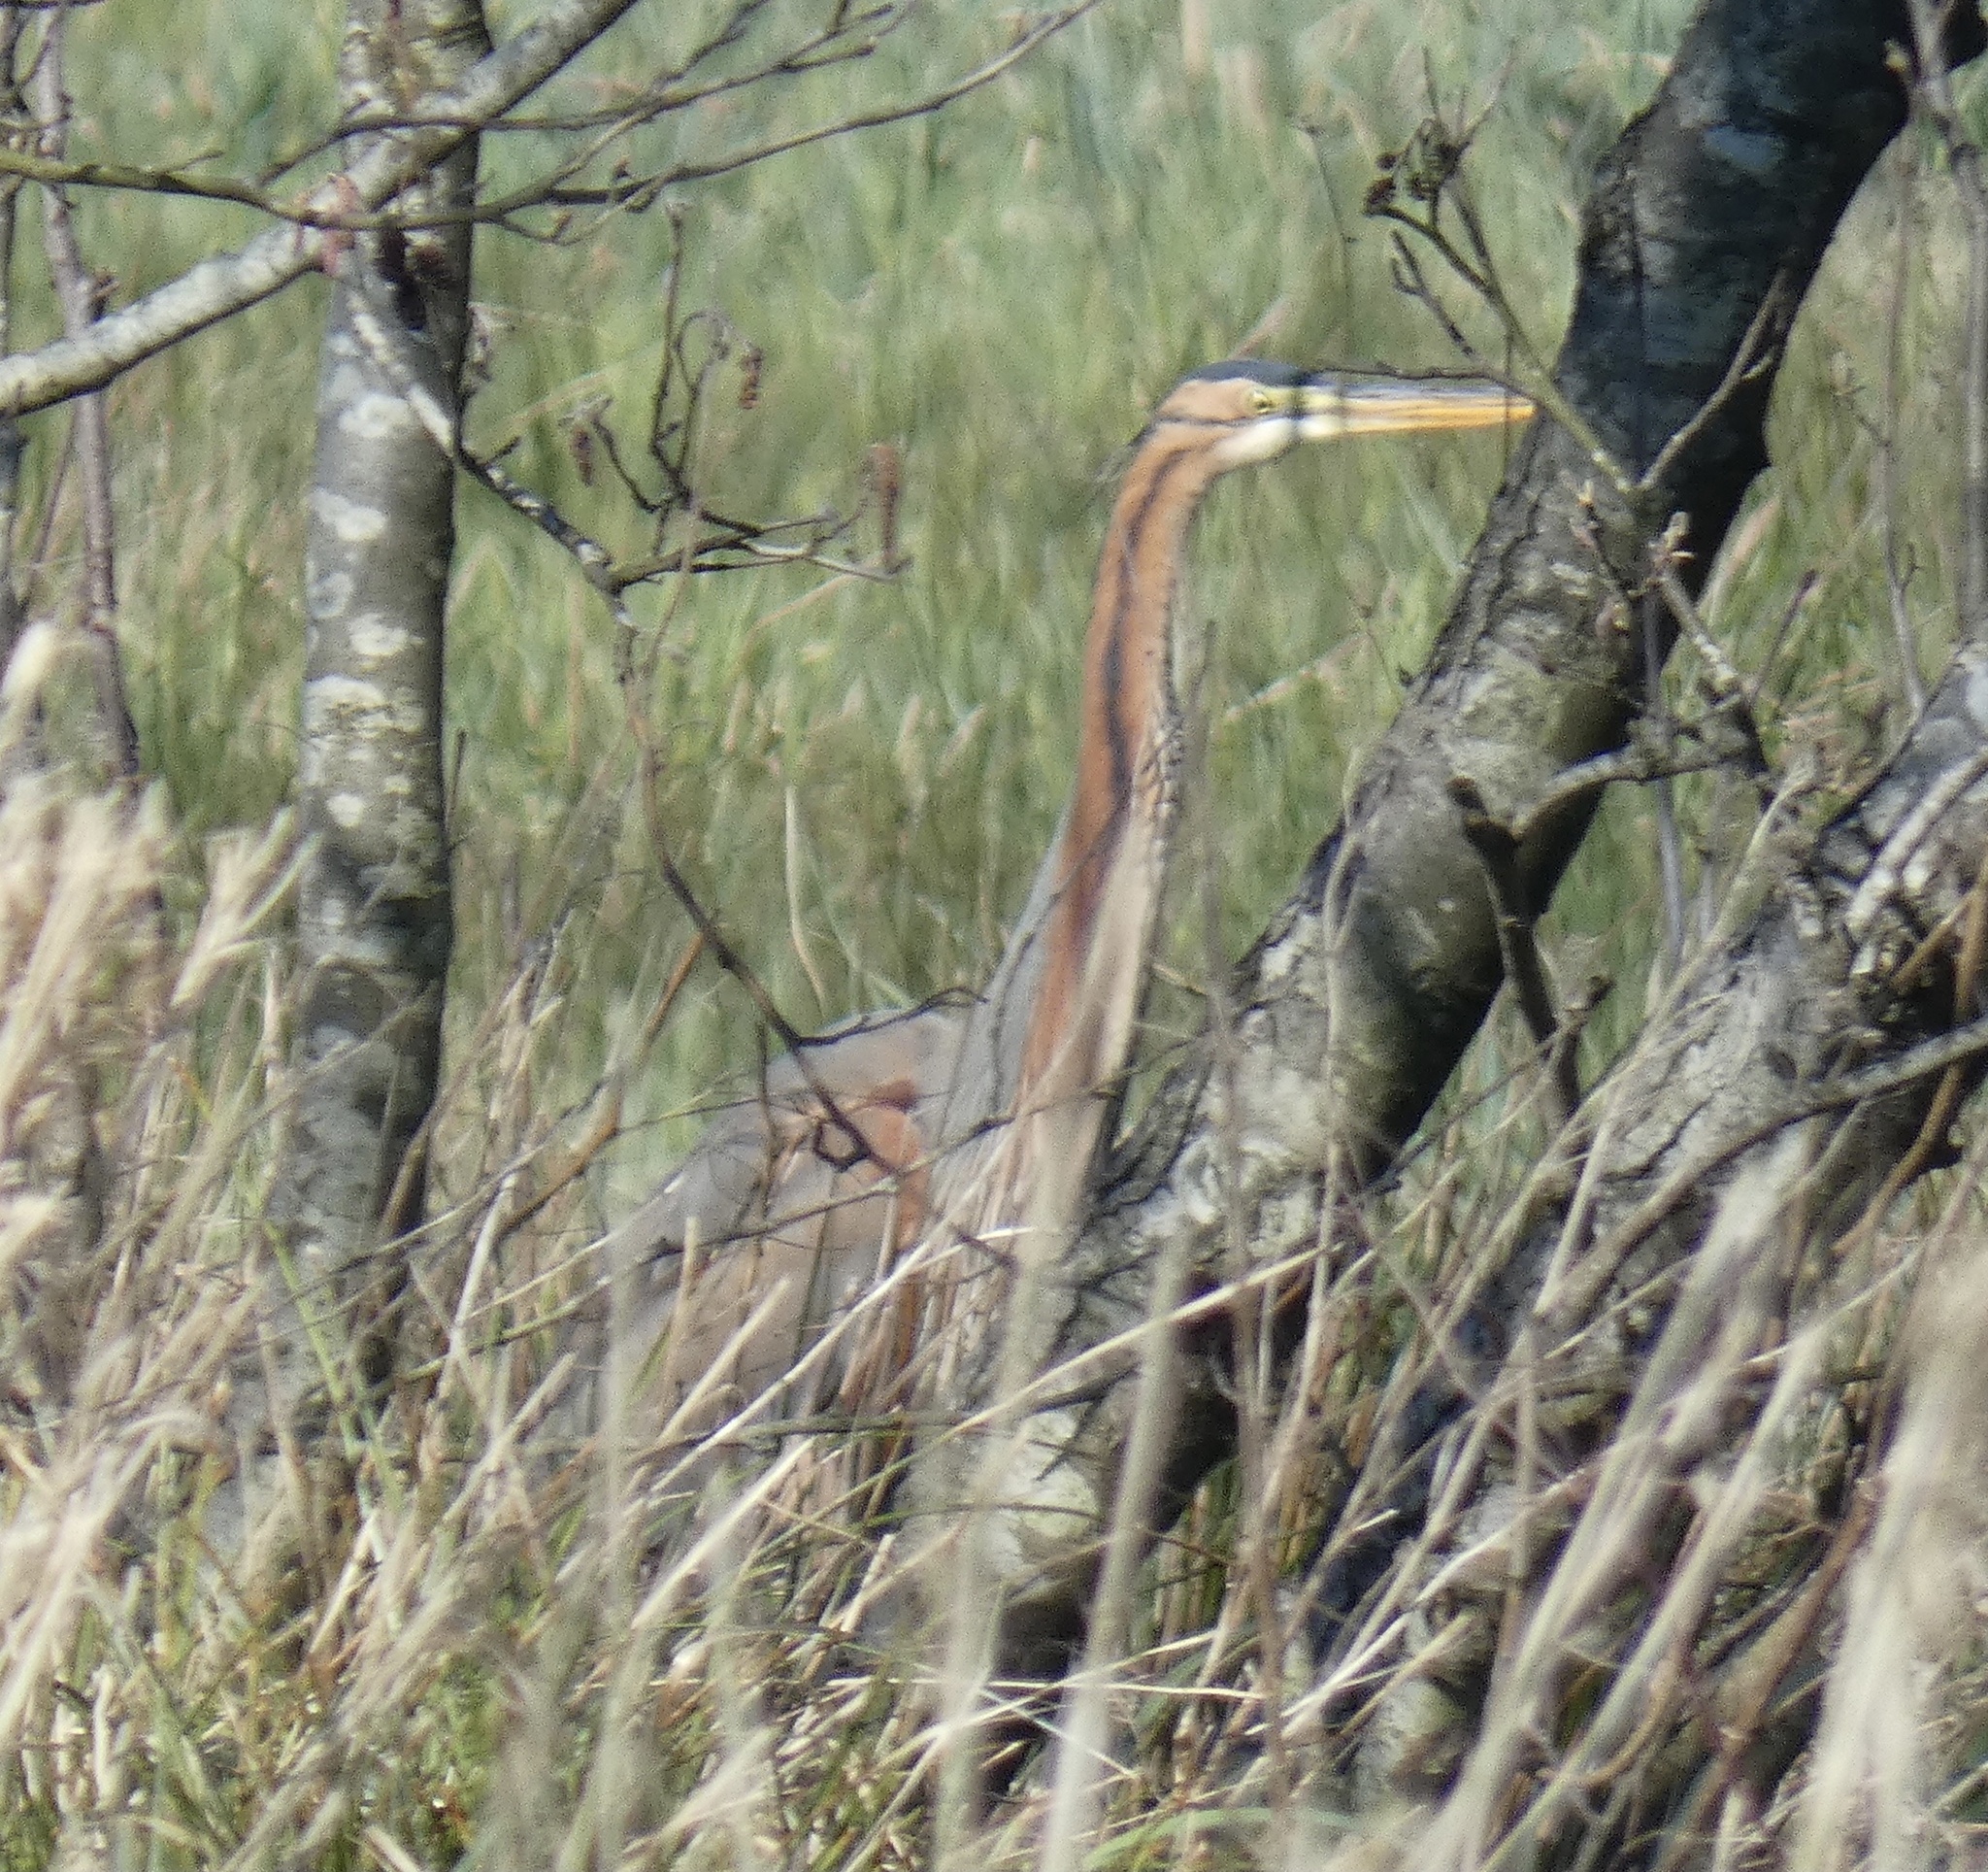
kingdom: Animalia
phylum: Chordata
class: Aves
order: Pelecaniformes
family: Ardeidae
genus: Ardea
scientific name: Ardea purpurea
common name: Purple heron
